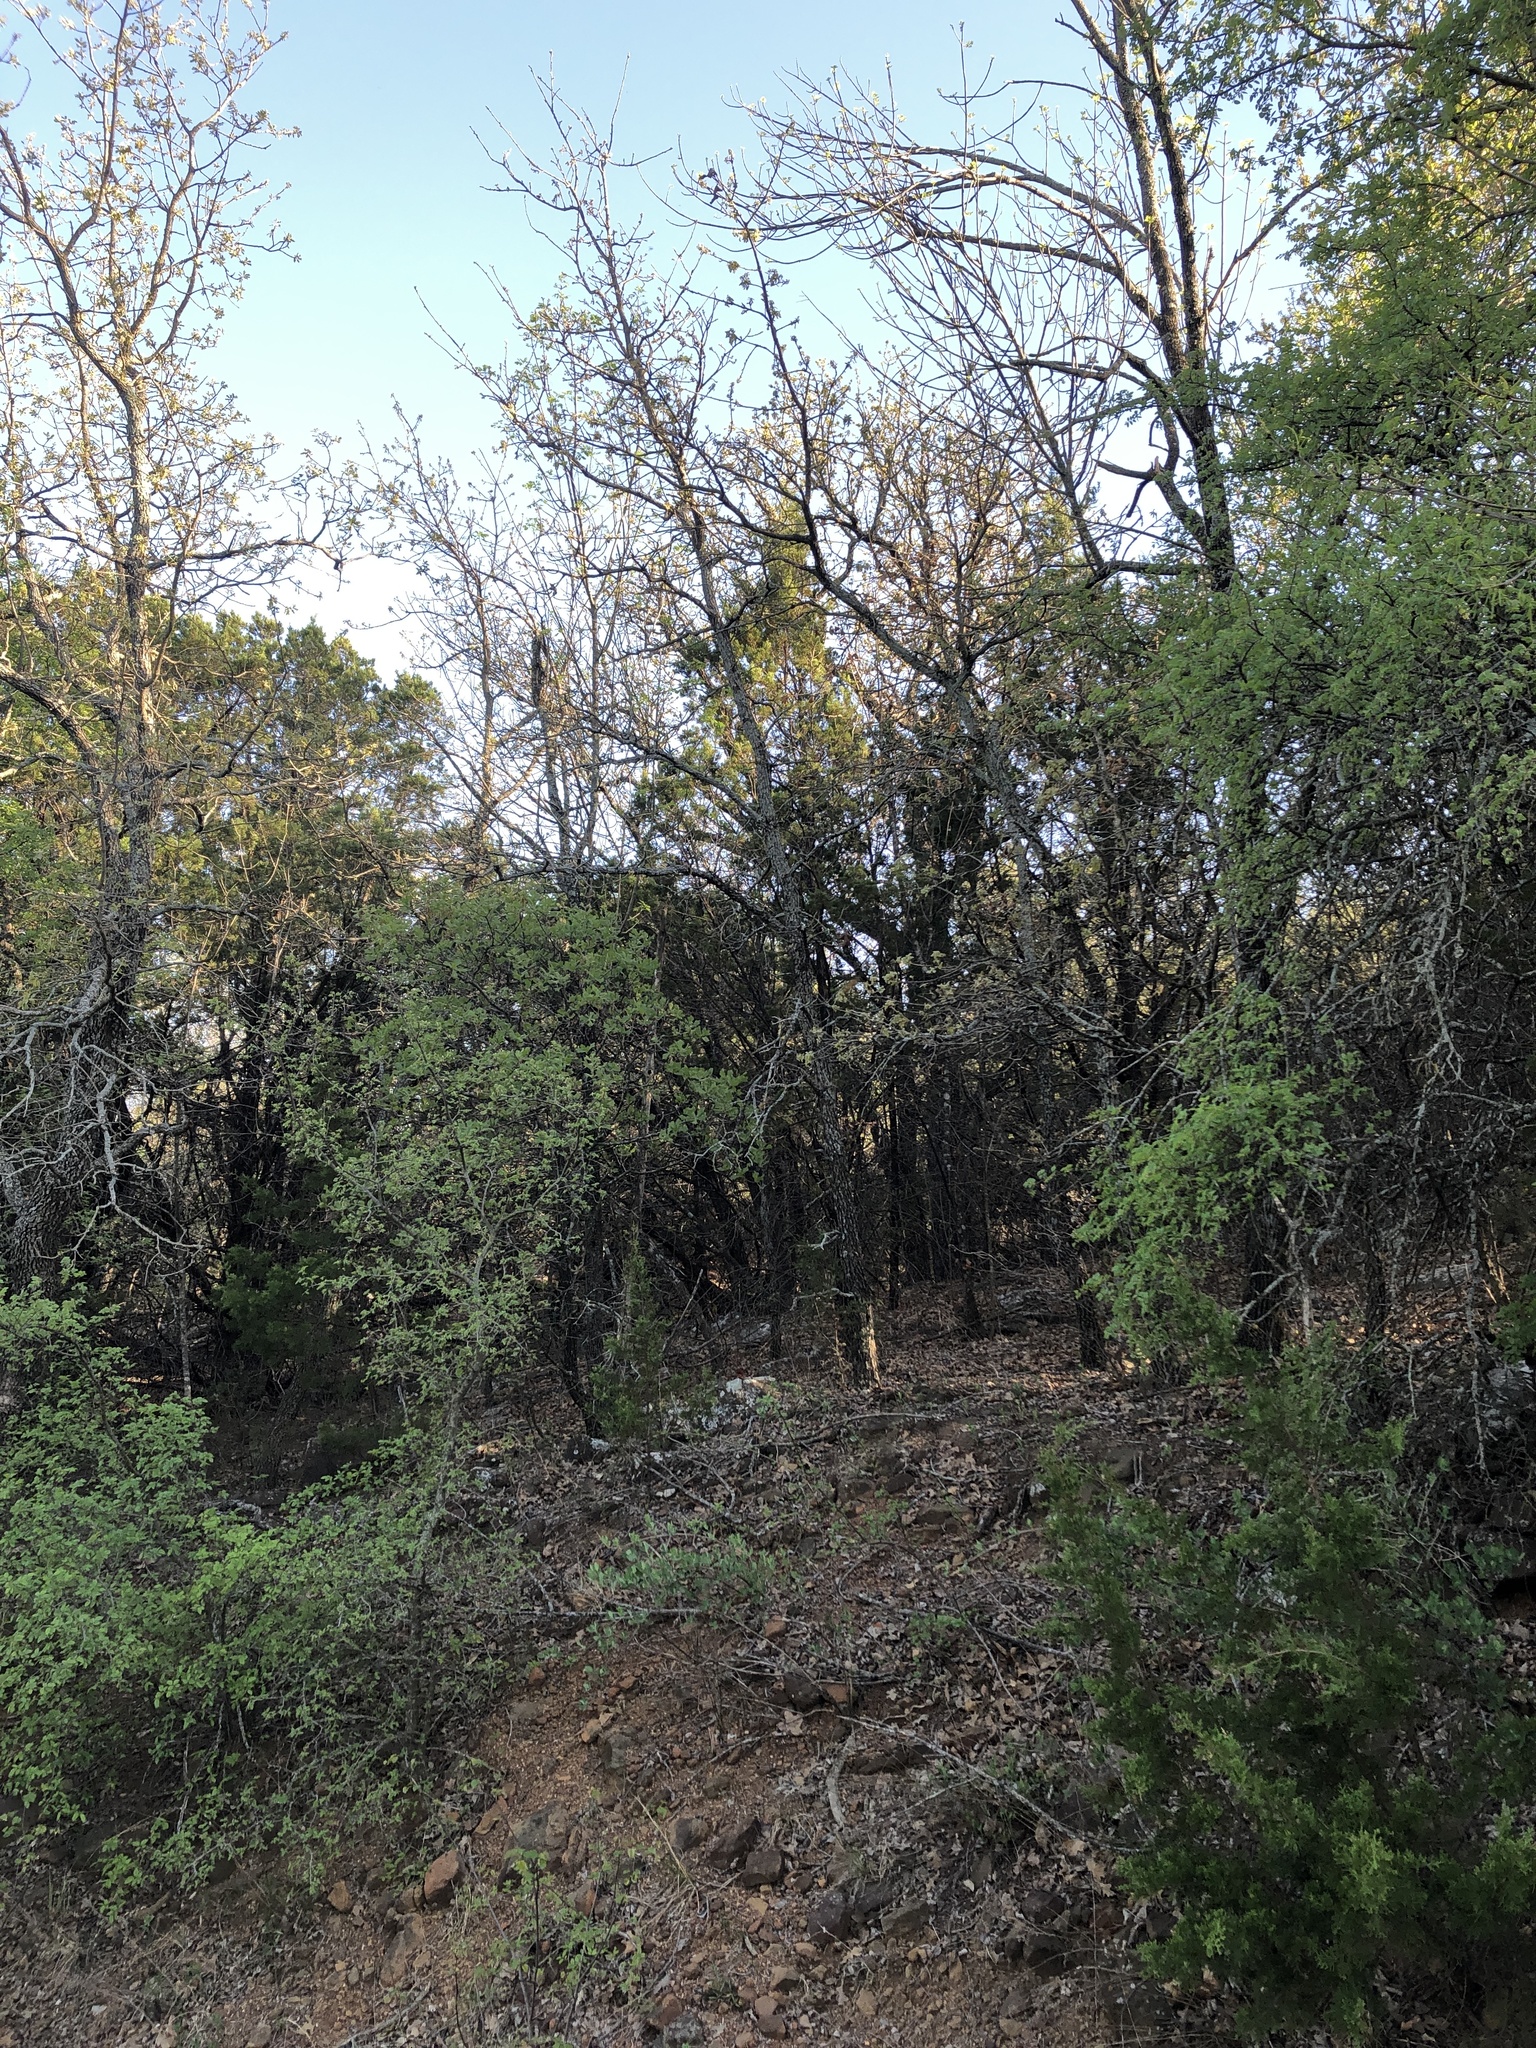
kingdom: Animalia
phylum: Chordata
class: Aves
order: Columbiformes
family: Columbidae
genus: Zenaida
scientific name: Zenaida asiatica
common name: White-winged dove
